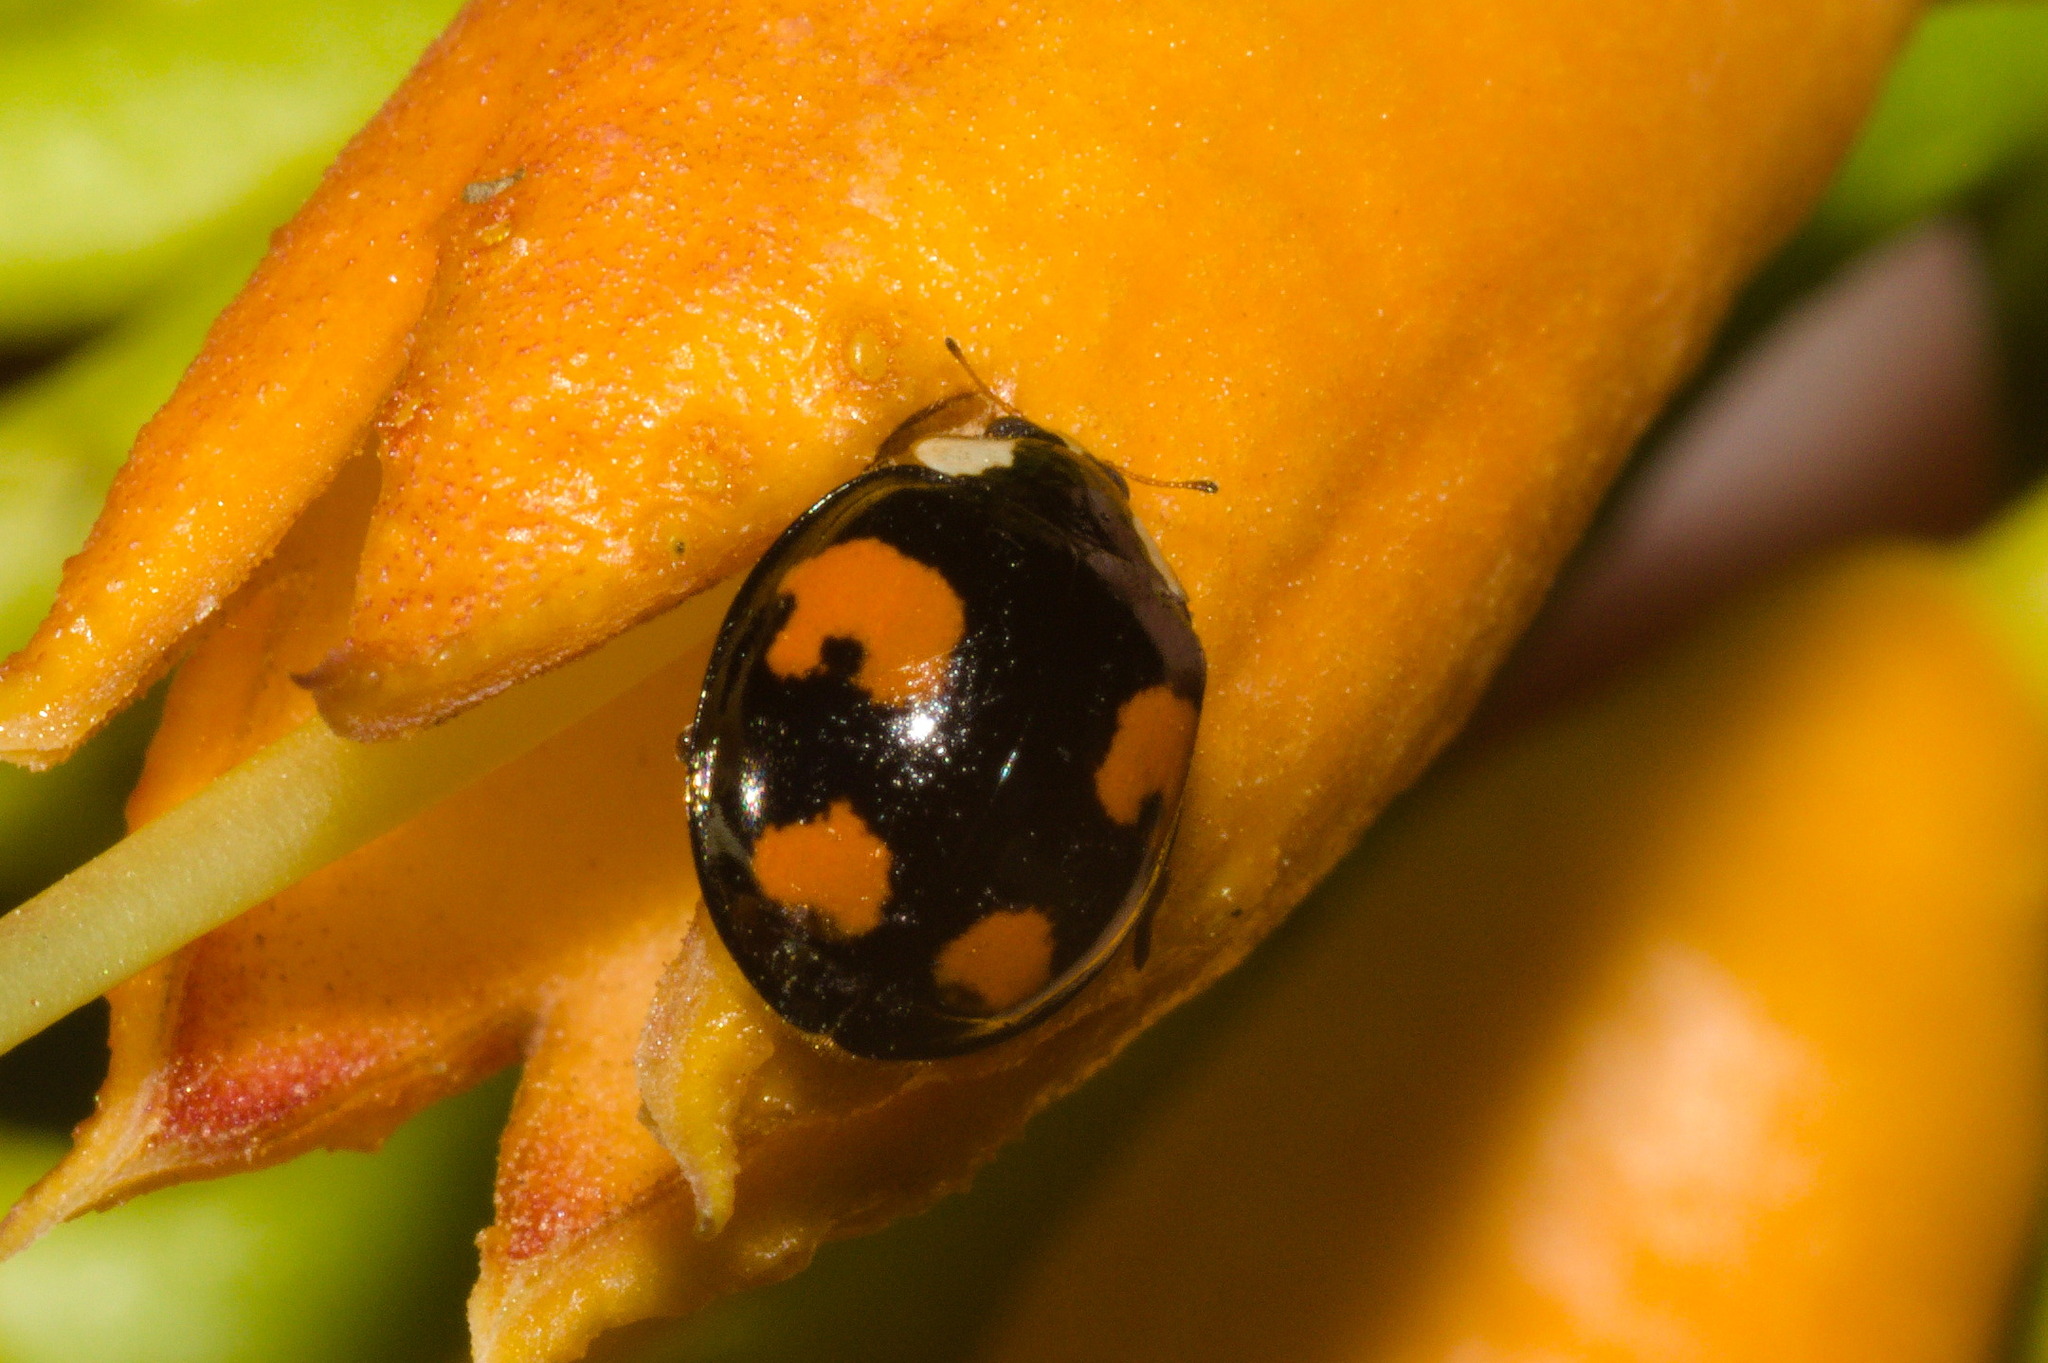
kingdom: Animalia
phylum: Arthropoda
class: Insecta
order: Coleoptera
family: Coccinellidae
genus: Harmonia
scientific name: Harmonia axyridis
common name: Harlequin ladybird
